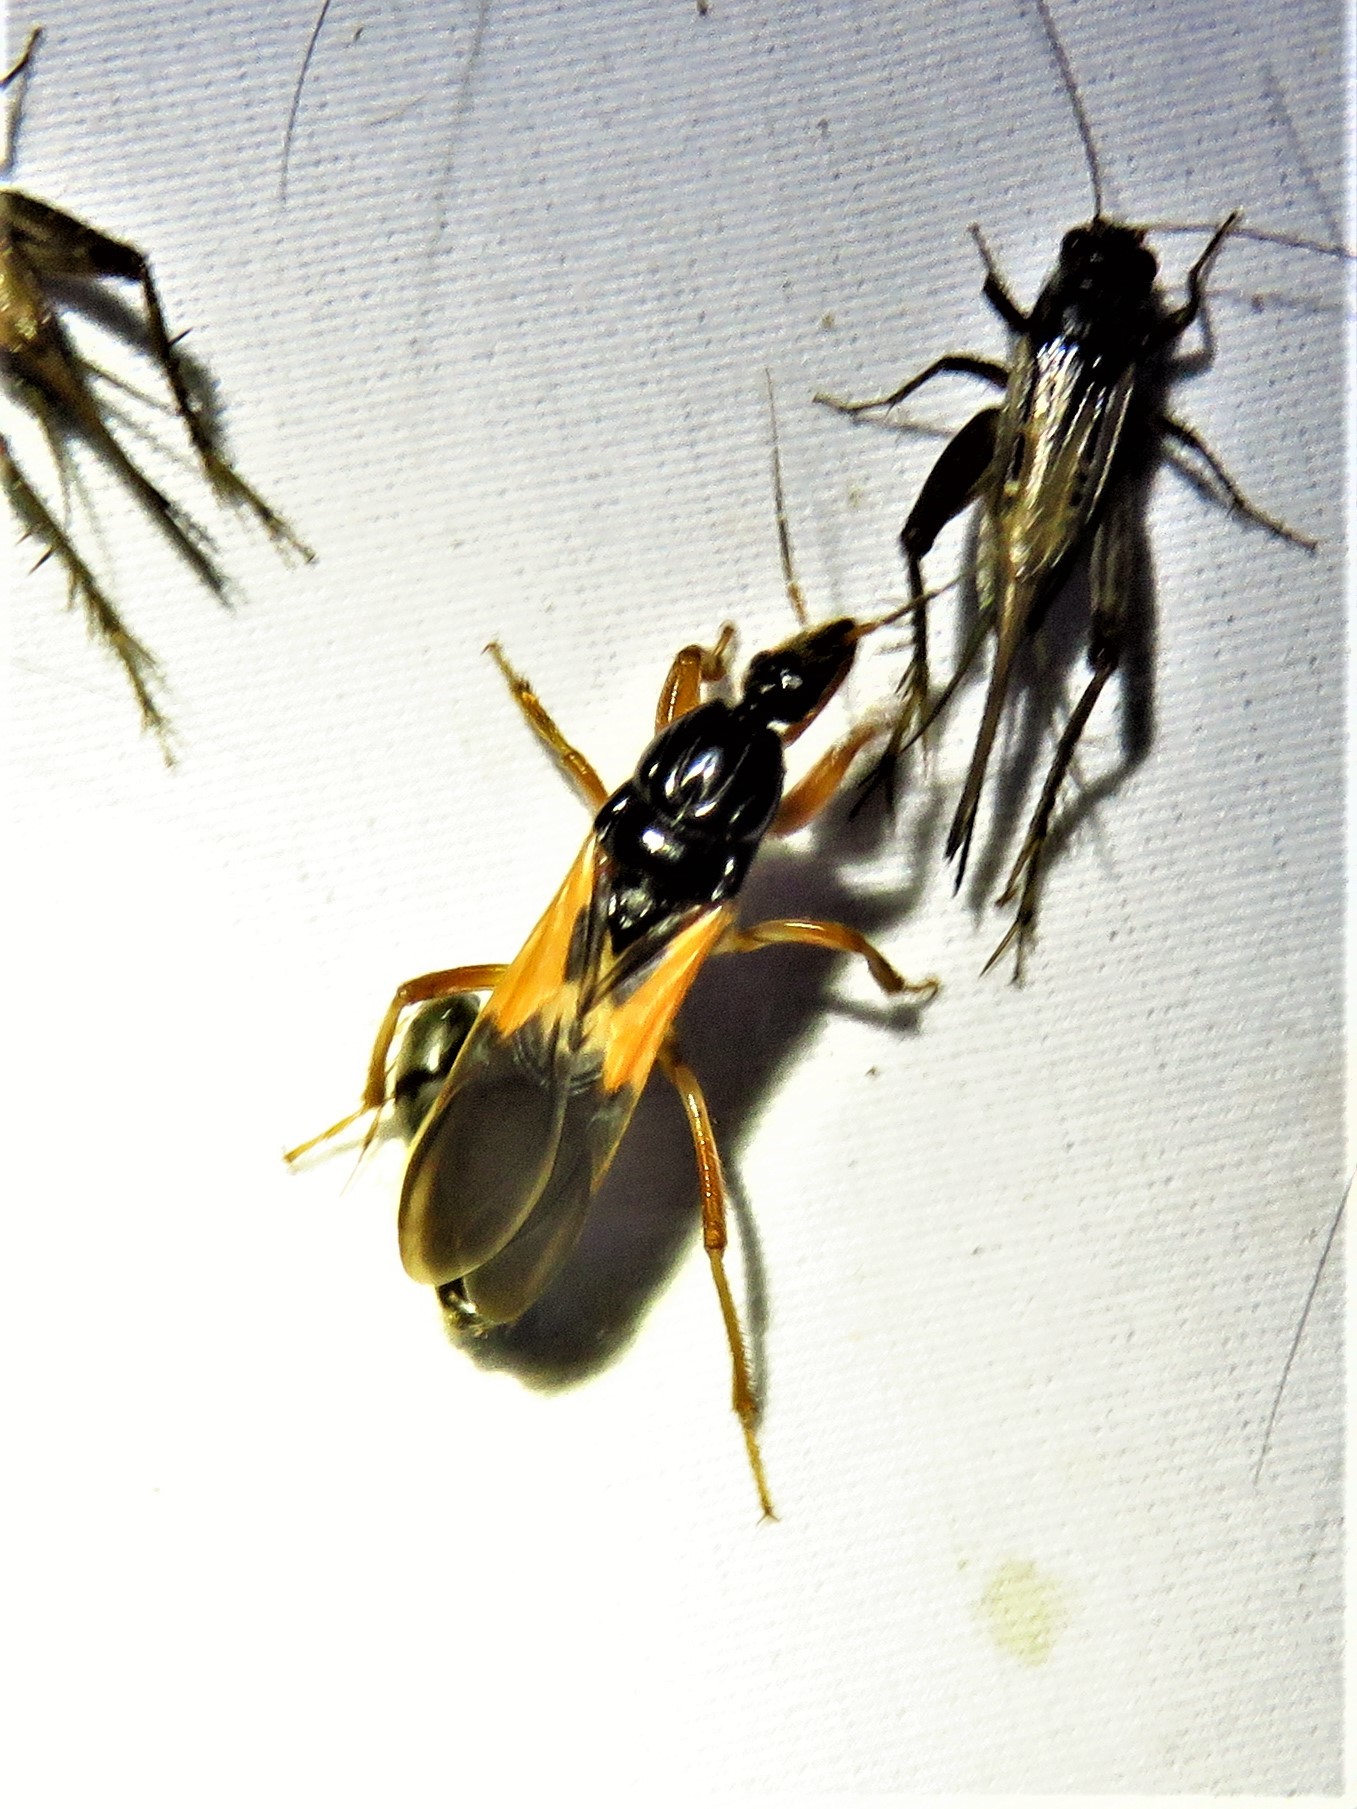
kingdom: Animalia
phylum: Arthropoda
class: Insecta
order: Hemiptera
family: Reduviidae
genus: Sirthenea
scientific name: Sirthenea stria
